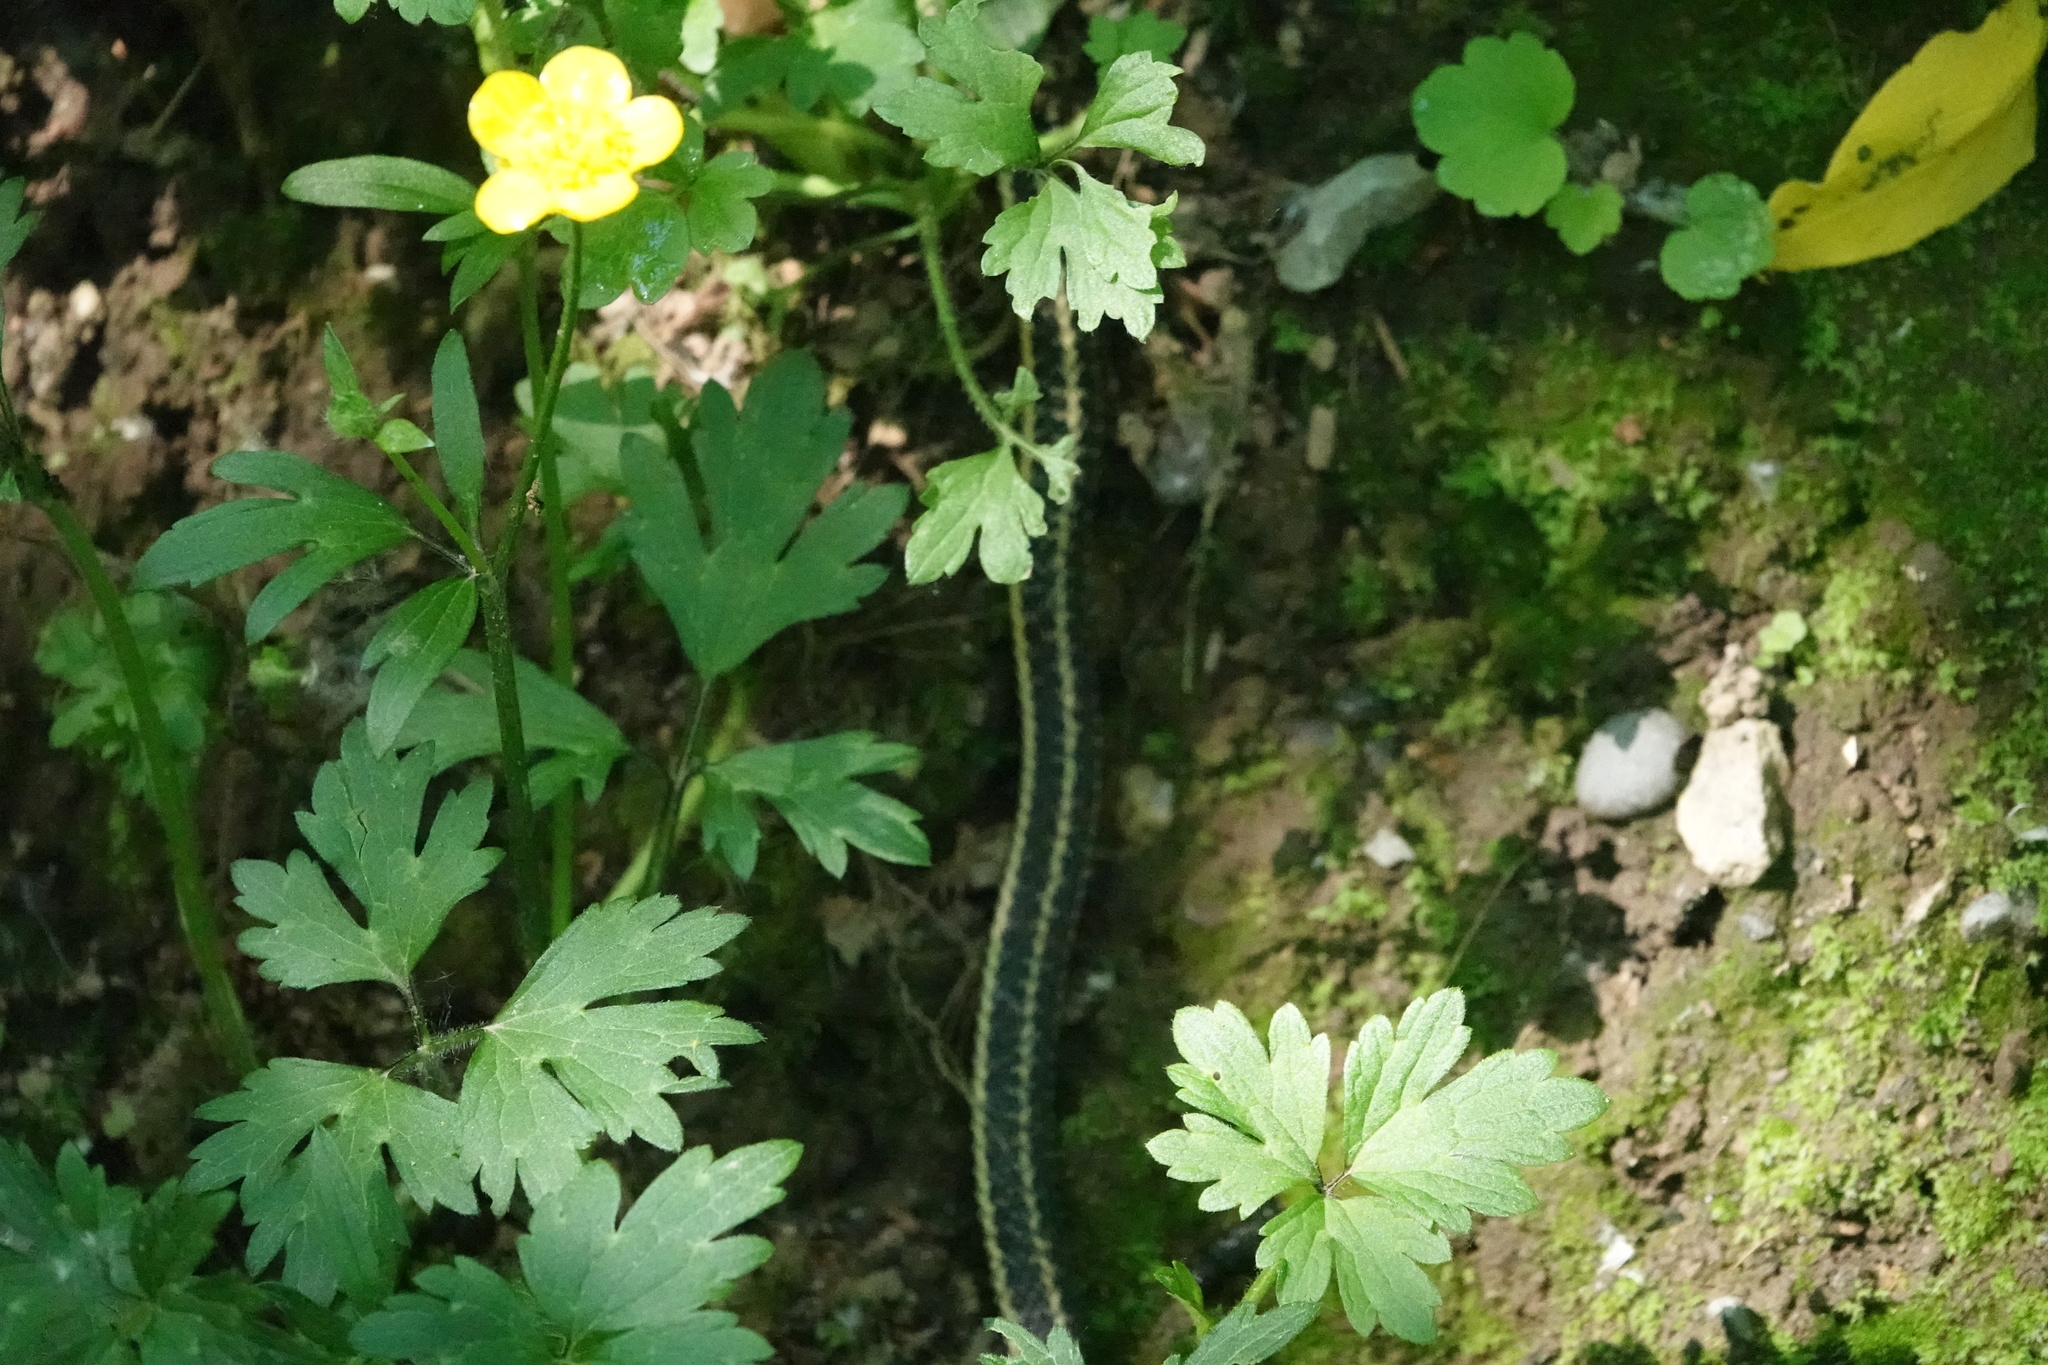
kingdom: Animalia
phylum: Chordata
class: Squamata
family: Colubridae
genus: Thamnophis
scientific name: Thamnophis ordinoides
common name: Northwestern garter snake
